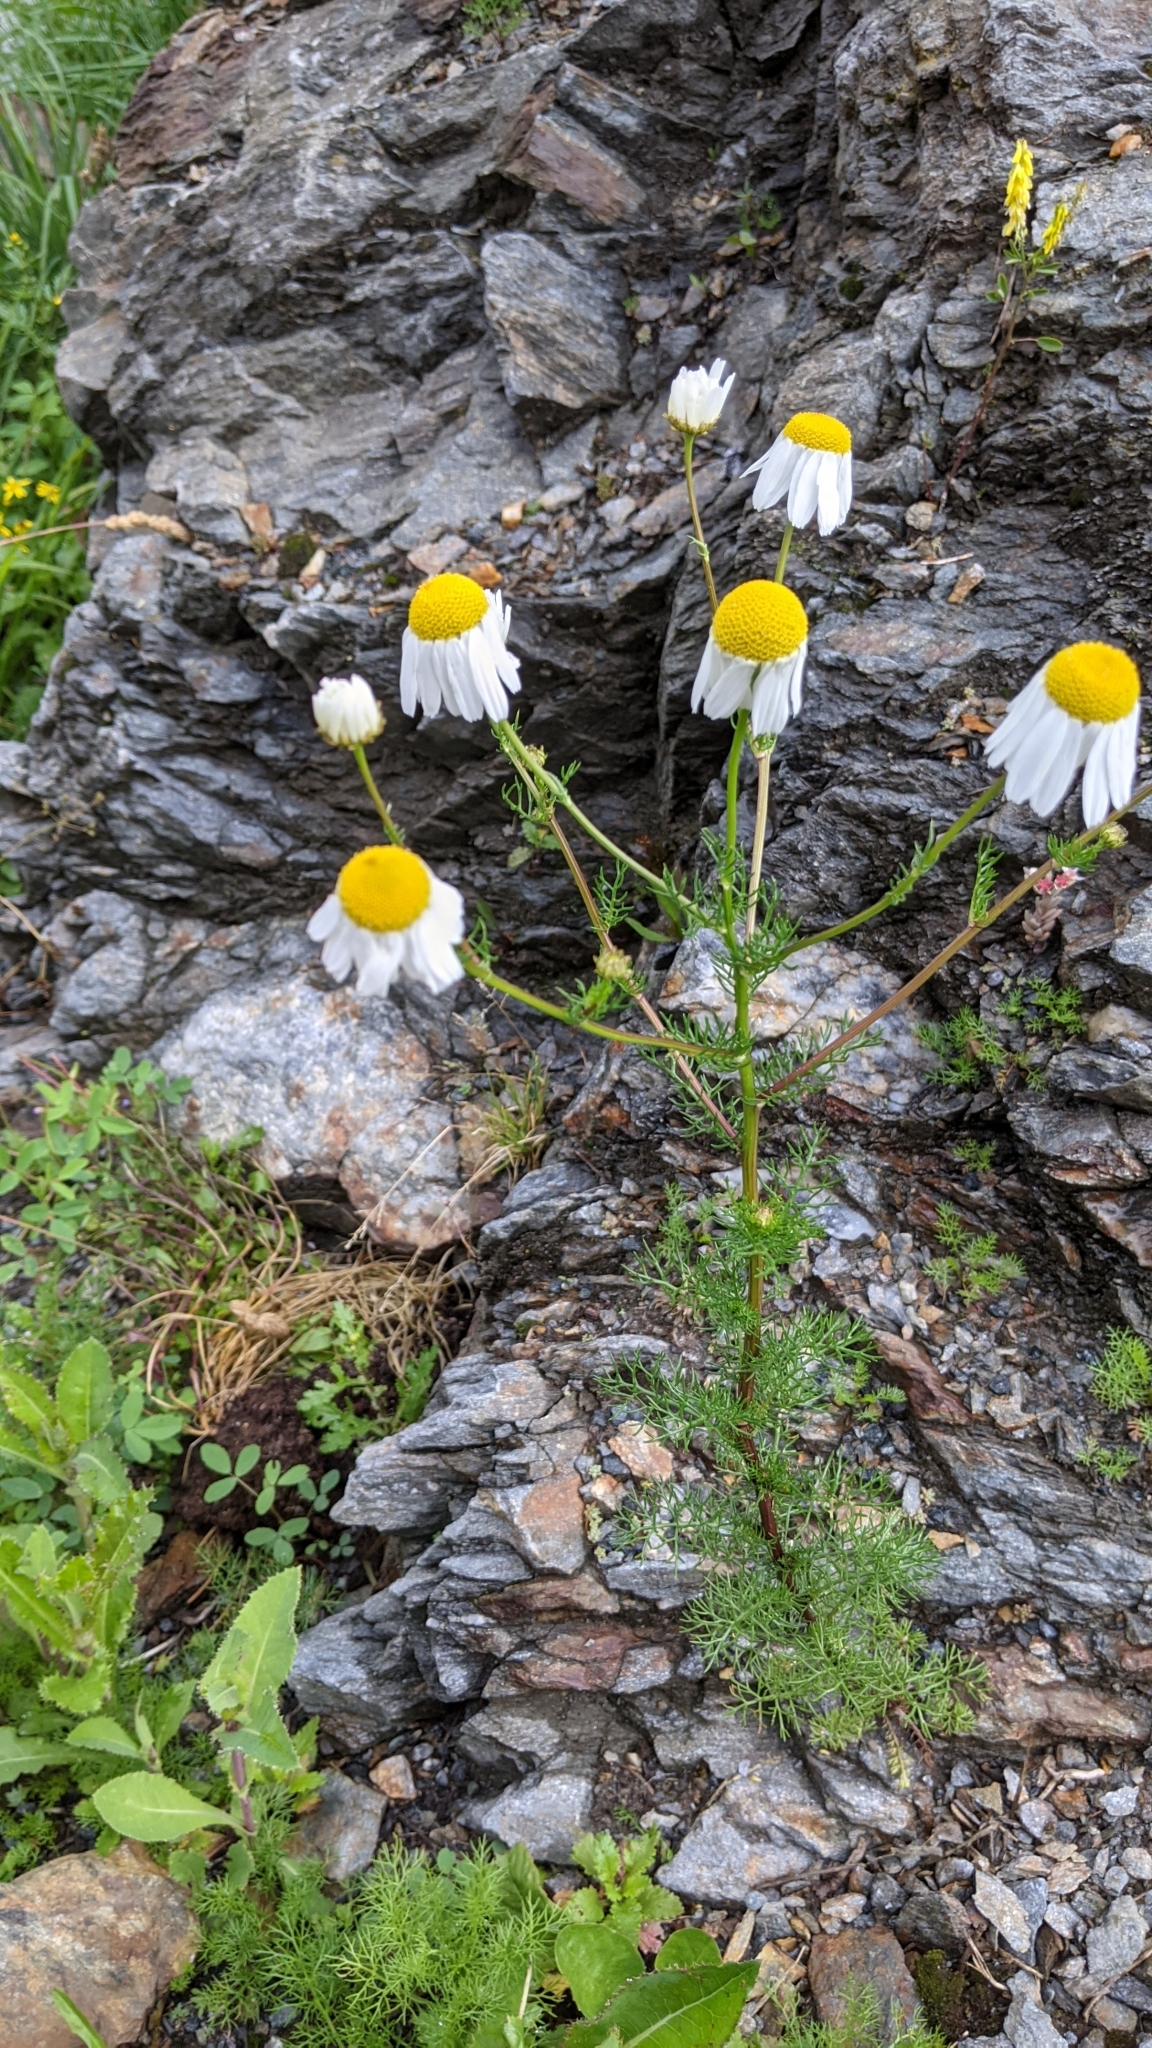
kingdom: Plantae
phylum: Tracheophyta
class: Magnoliopsida
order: Asterales
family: Asteraceae
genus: Matricaria
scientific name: Matricaria chamomilla
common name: Scented mayweed
